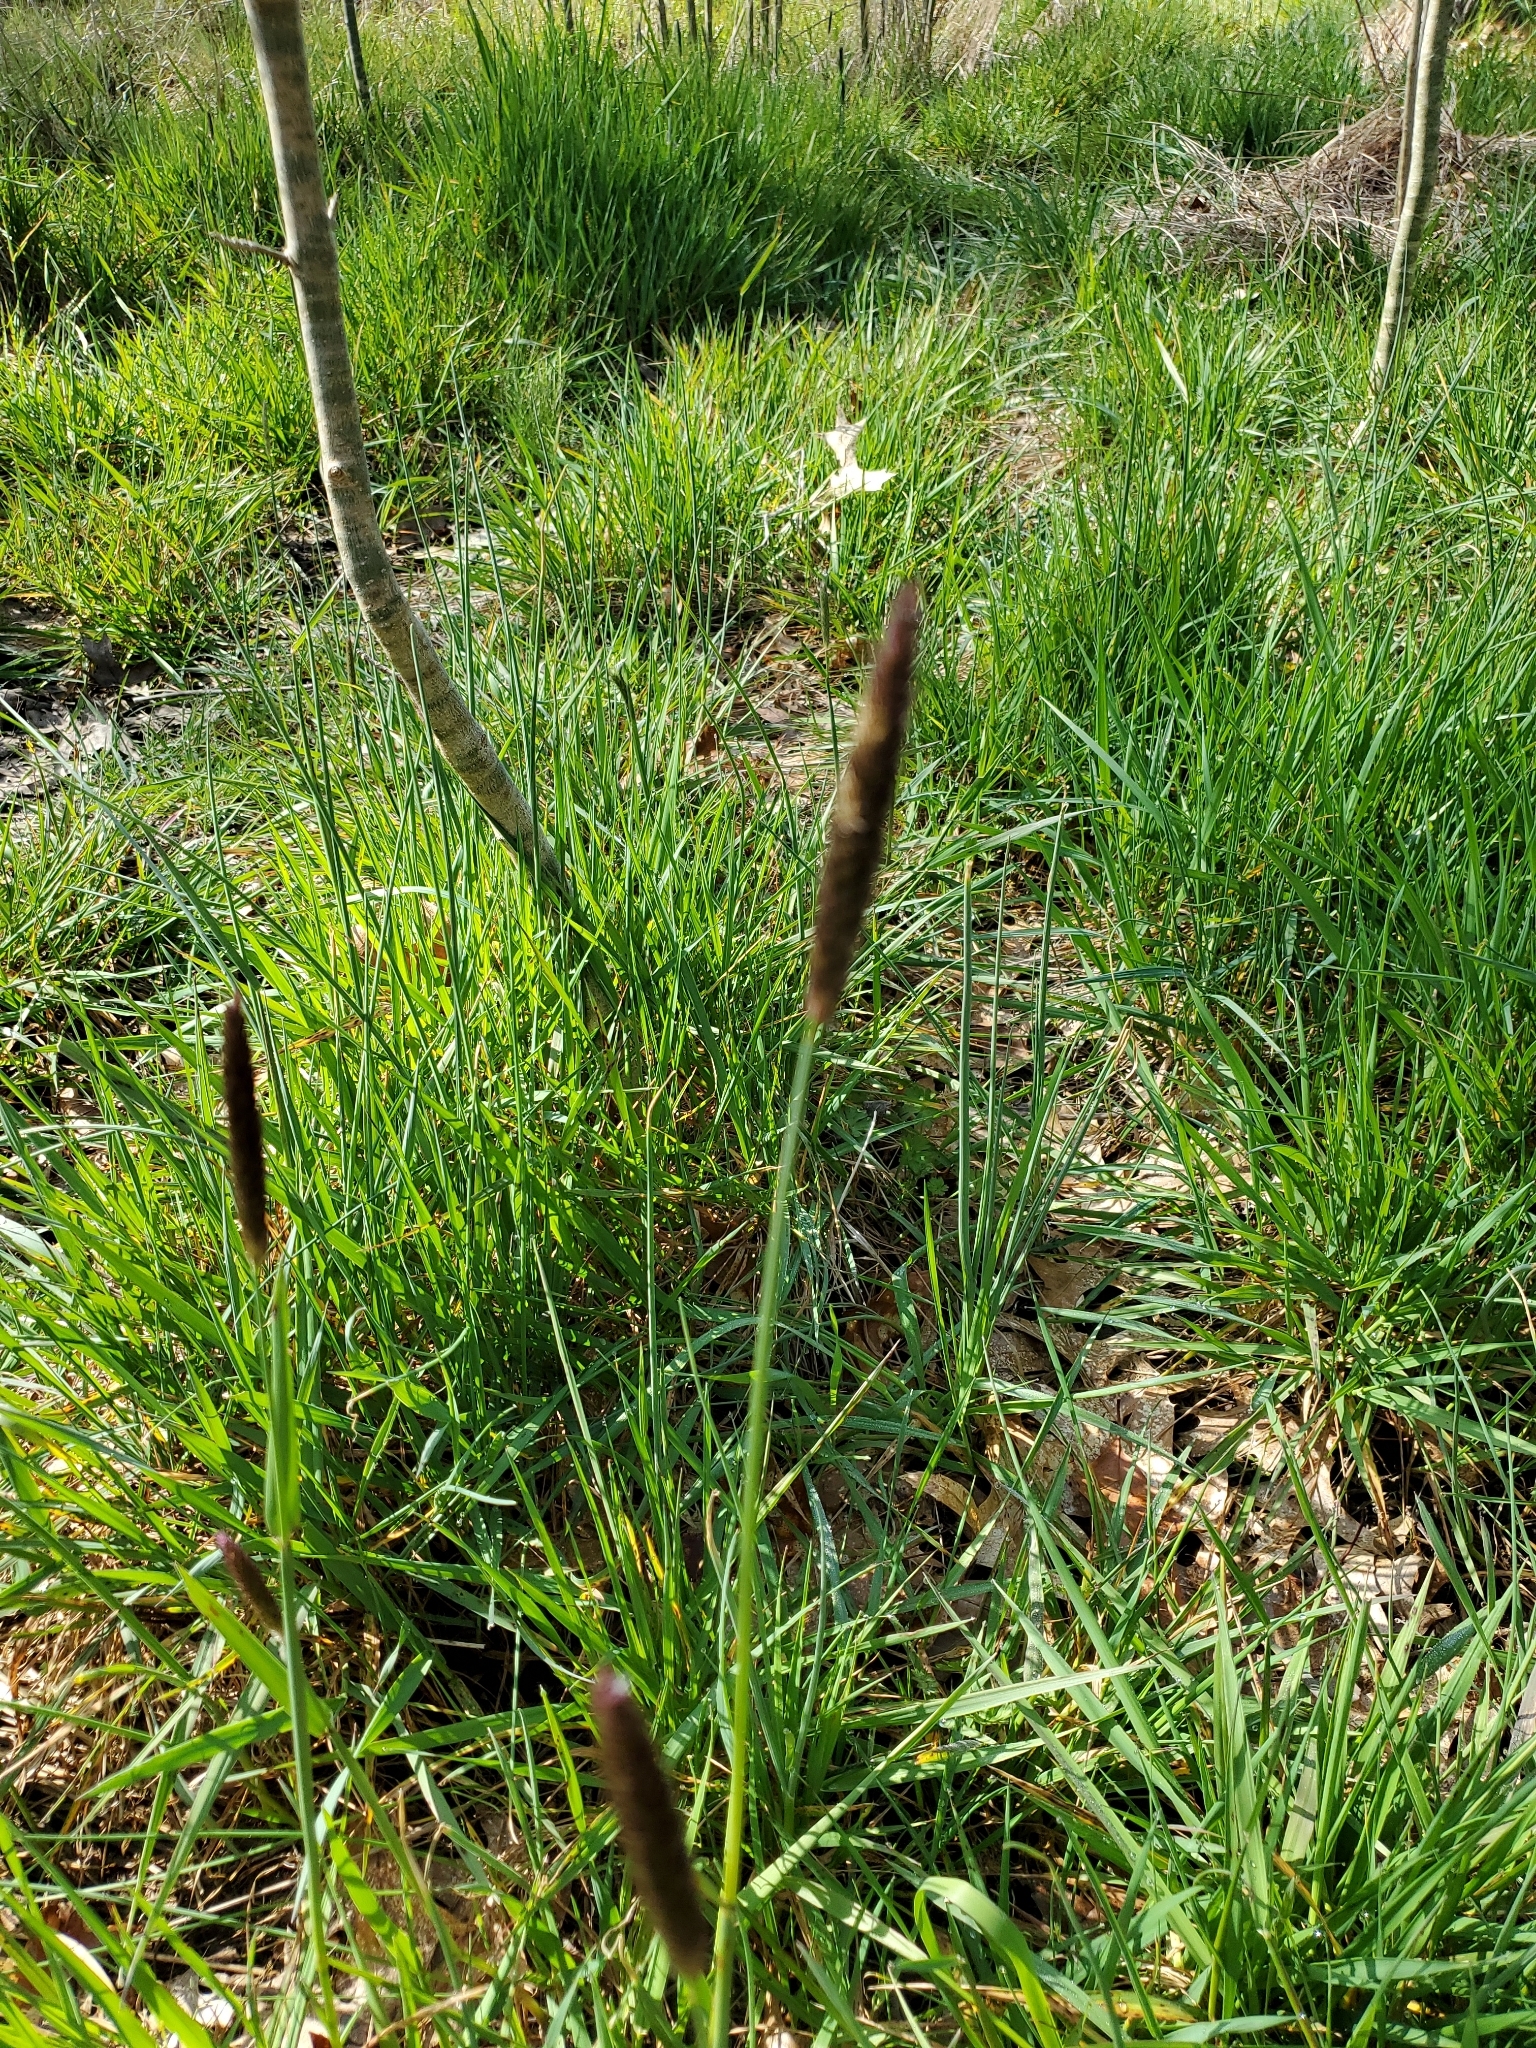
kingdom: Plantae
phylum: Tracheophyta
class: Liliopsida
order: Poales
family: Poaceae
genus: Alopecurus
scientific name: Alopecurus pratensis
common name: Meadow foxtail
